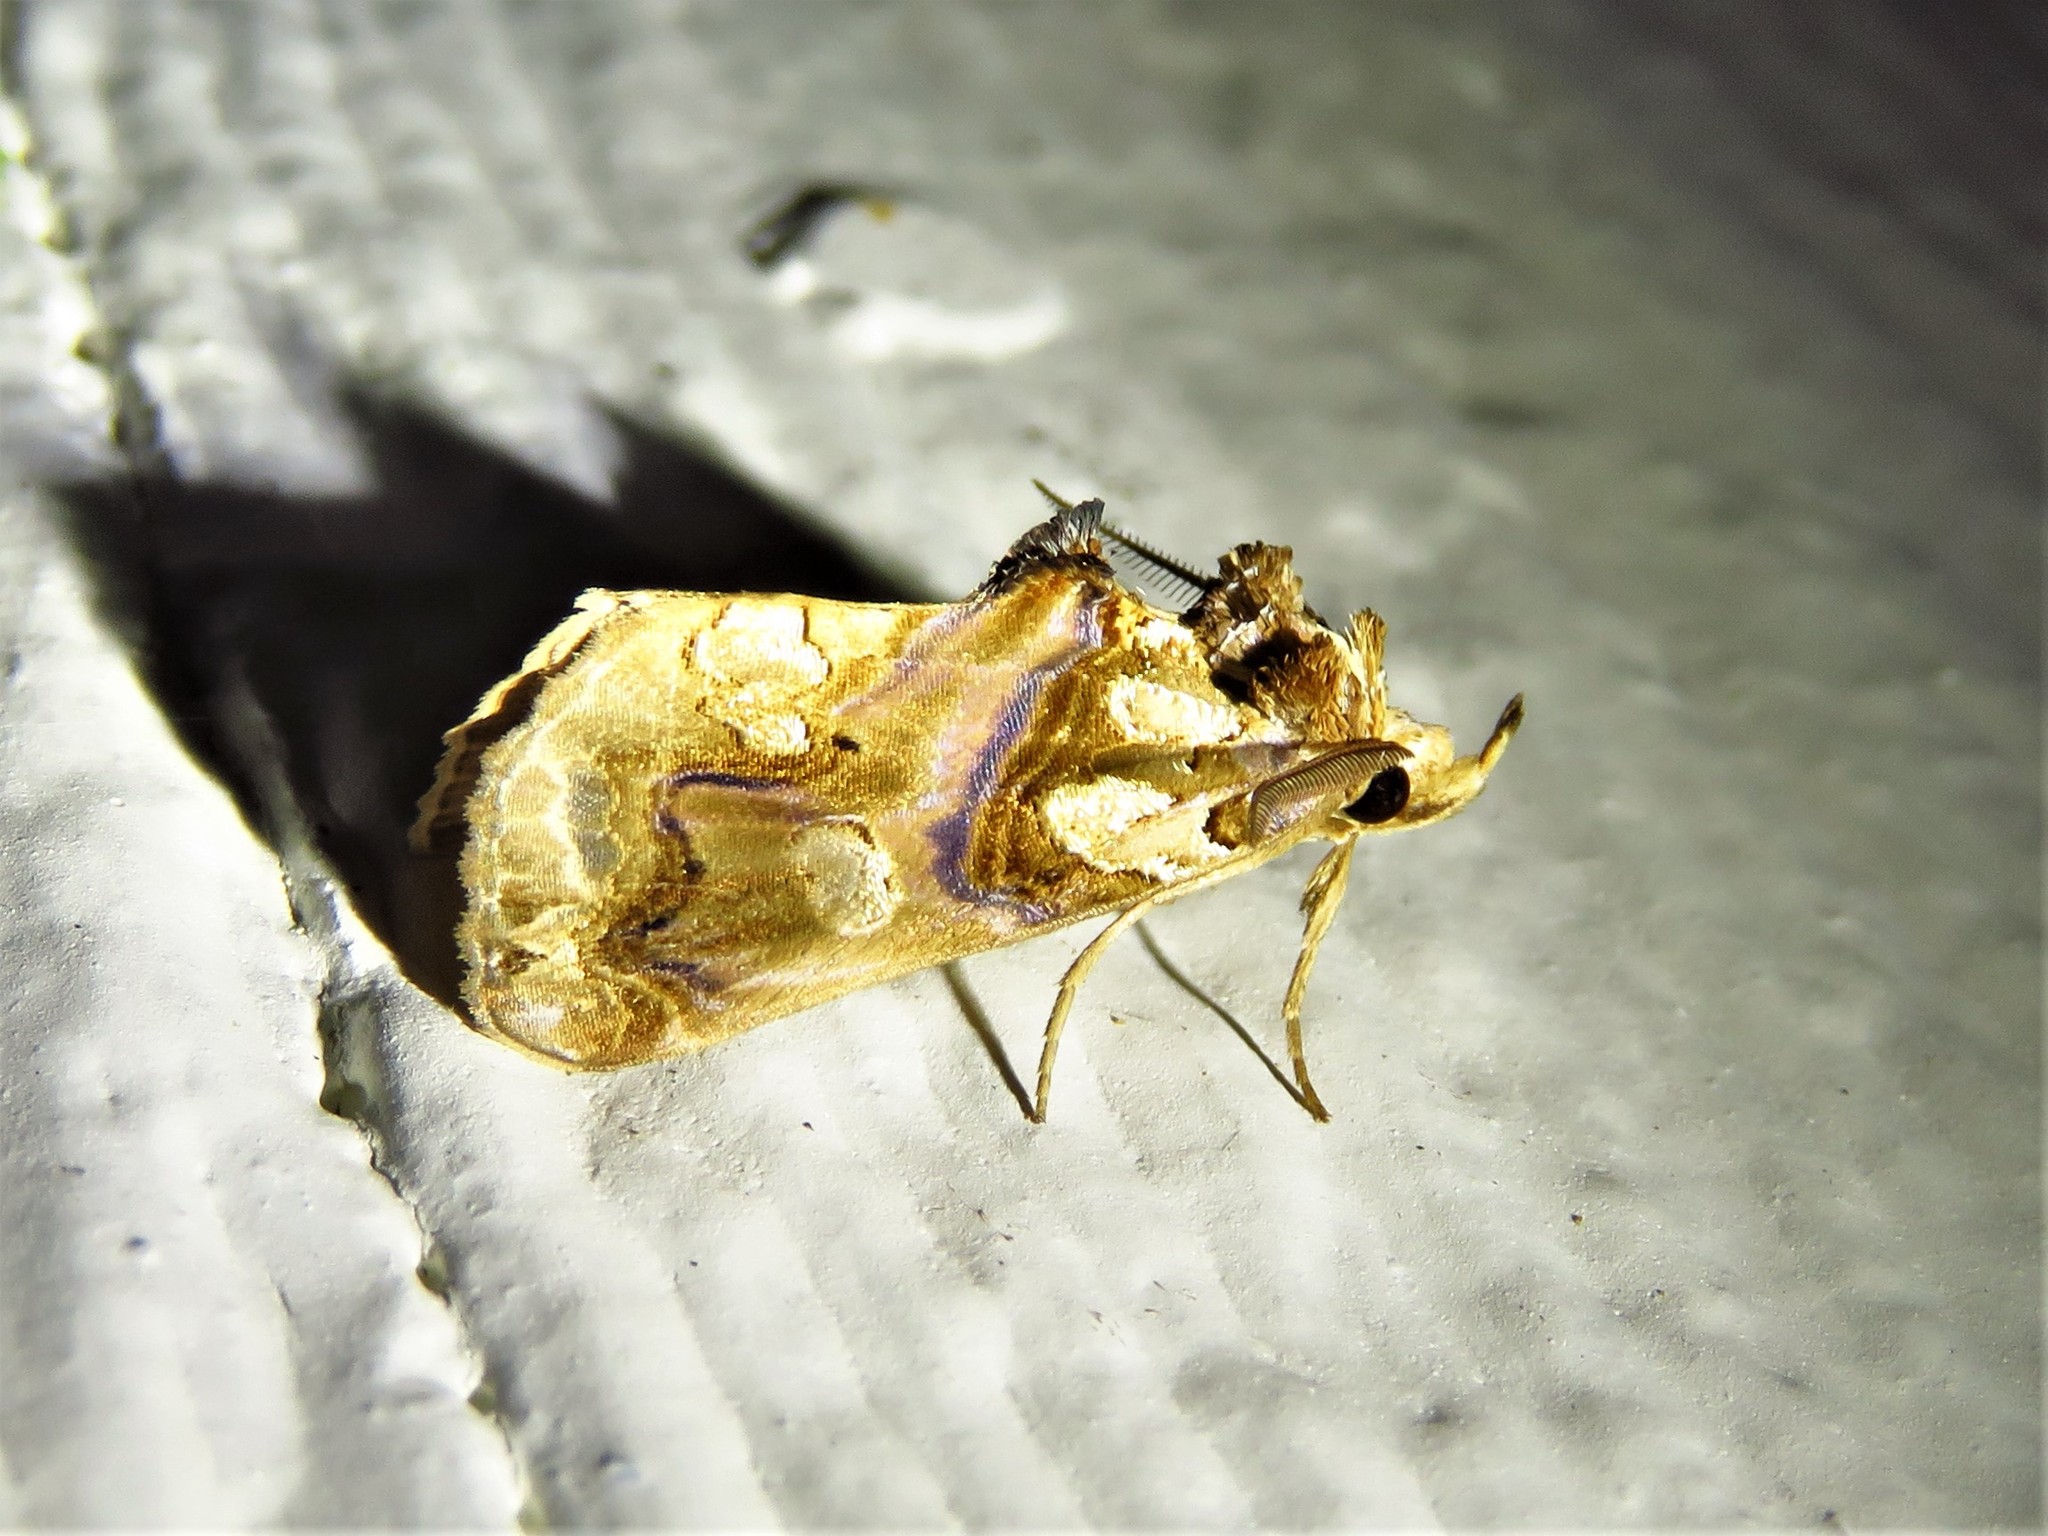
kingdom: Animalia
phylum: Arthropoda
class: Insecta
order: Lepidoptera
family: Erebidae
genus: Plusiodonta
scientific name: Plusiodonta compressipalpis
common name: Moonseed moth
